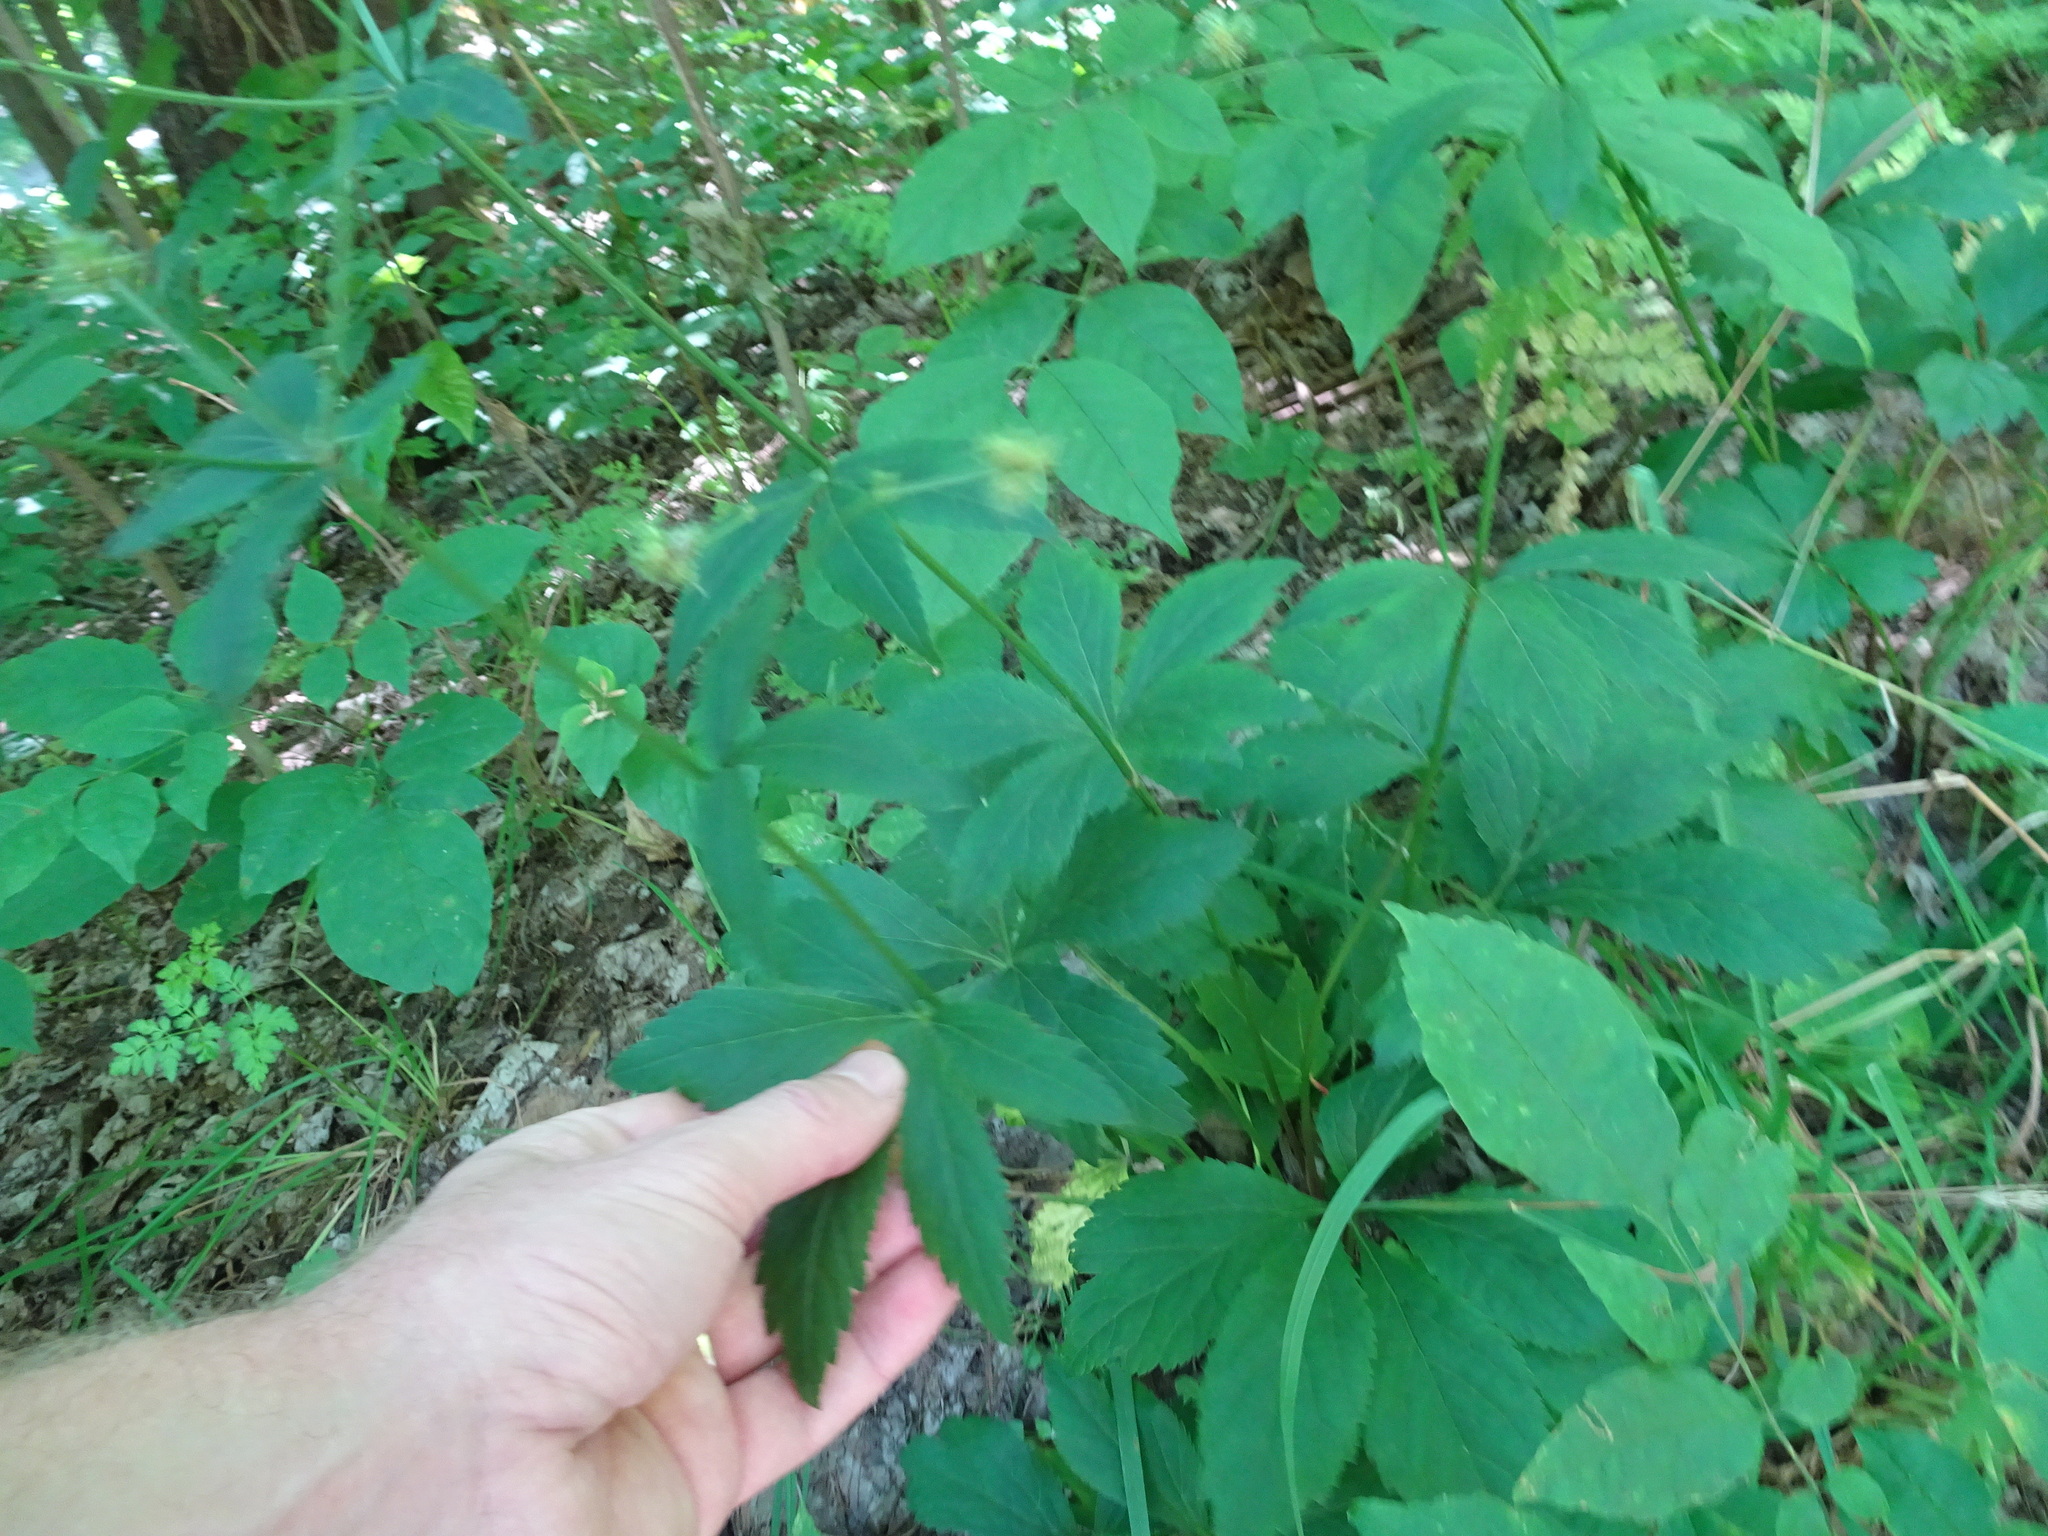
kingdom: Plantae
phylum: Tracheophyta
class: Magnoliopsida
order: Apiales
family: Apiaceae
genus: Sanicula
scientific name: Sanicula marilandica
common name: Black snakeroot
